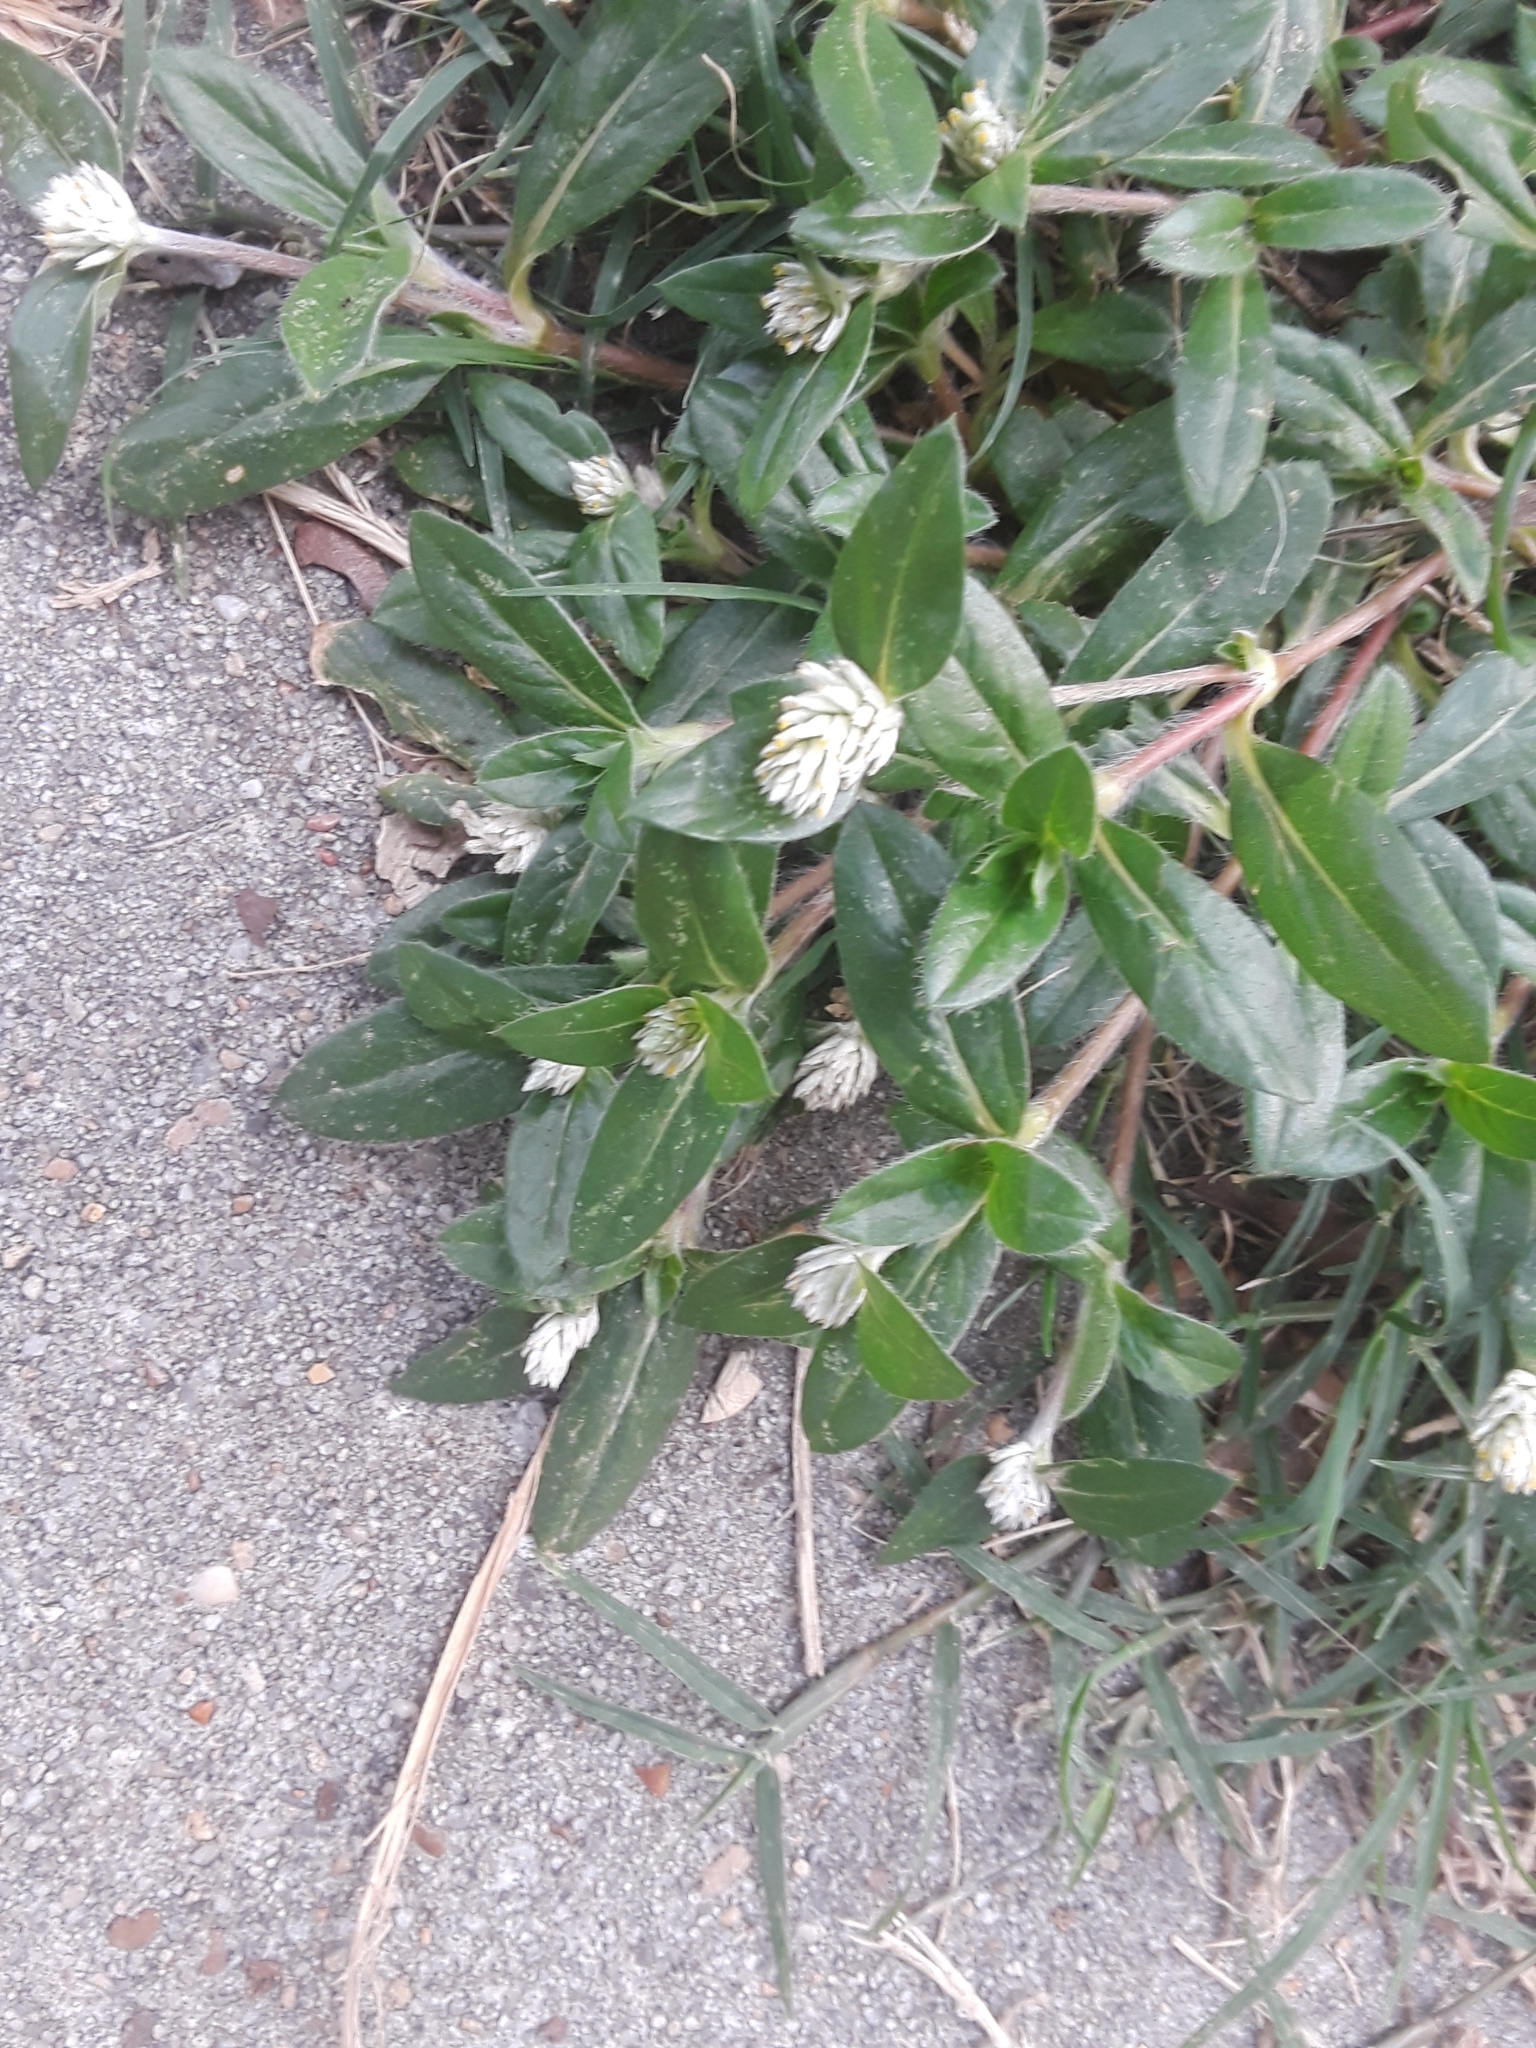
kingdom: Plantae
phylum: Tracheophyta
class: Magnoliopsida
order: Caryophyllales
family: Amaranthaceae
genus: Gomphrena
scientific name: Gomphrena serrata
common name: Arrasa con todo
